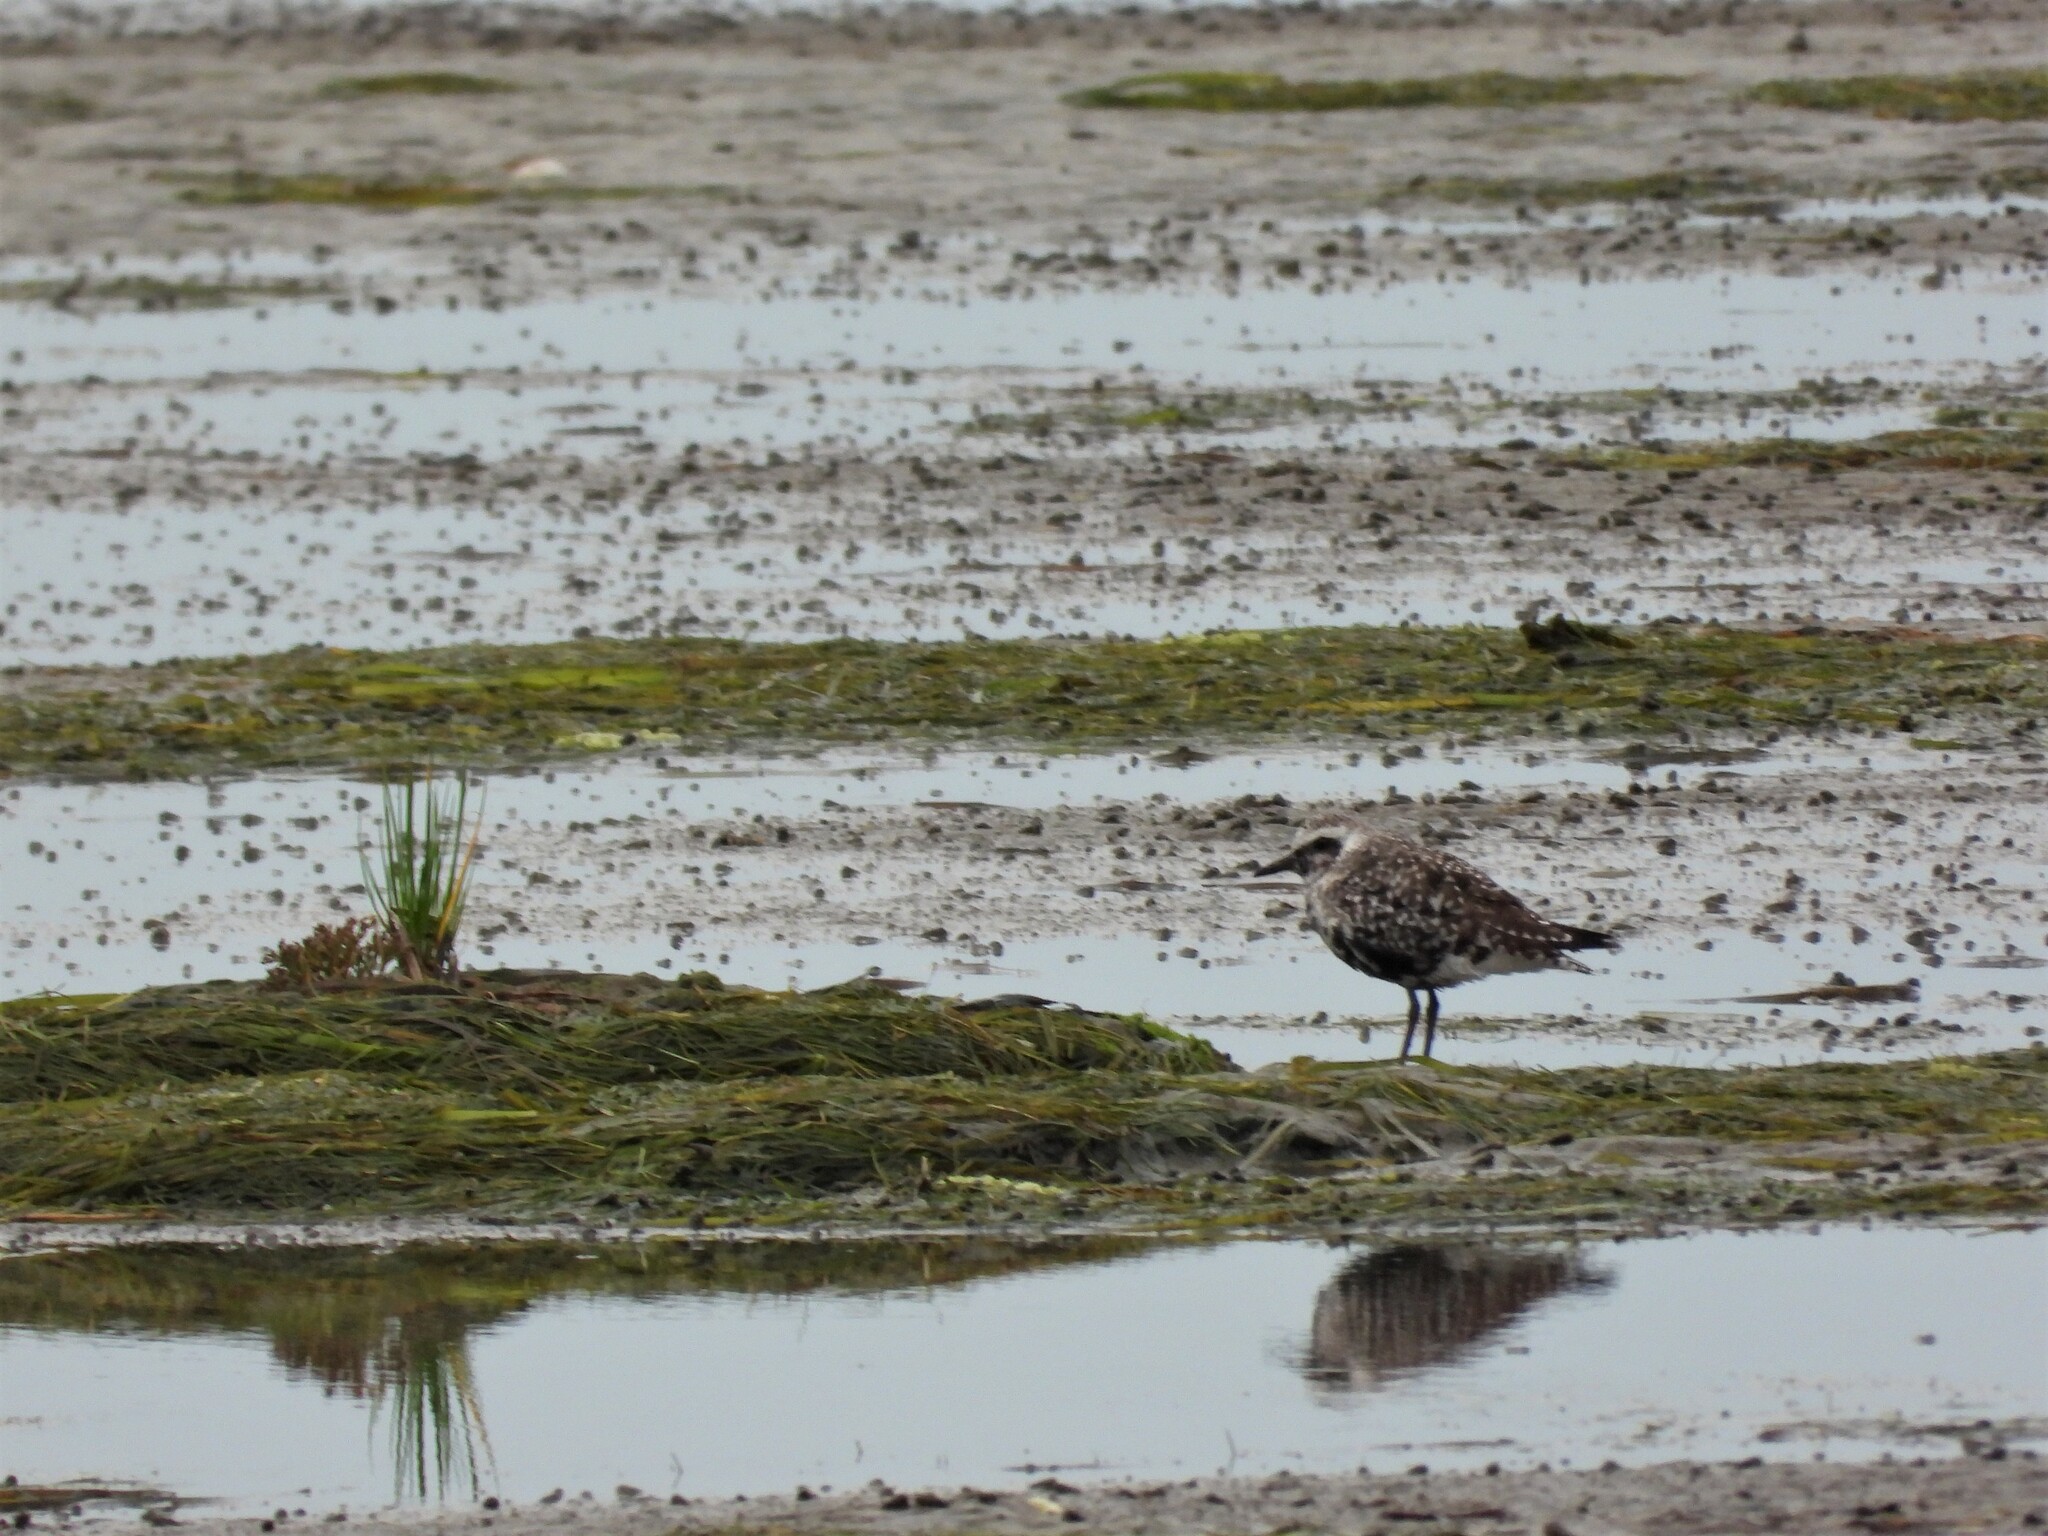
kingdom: Animalia
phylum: Chordata
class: Aves
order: Charadriiformes
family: Charadriidae
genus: Pluvialis
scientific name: Pluvialis squatarola
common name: Grey plover
